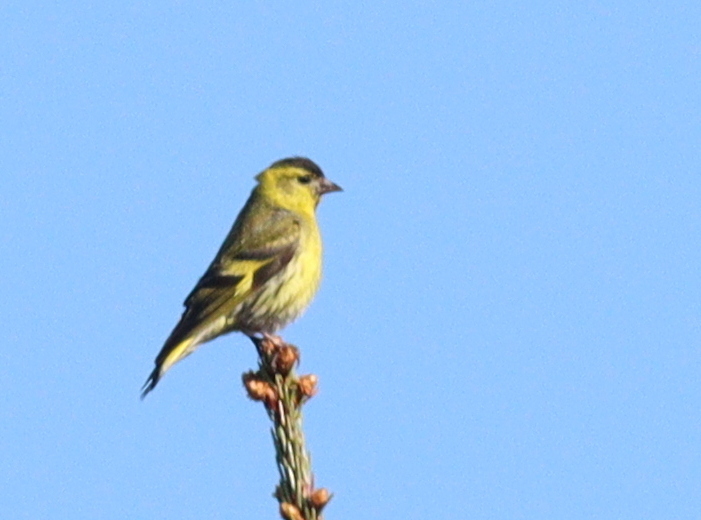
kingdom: Animalia
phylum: Chordata
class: Aves
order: Passeriformes
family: Fringillidae
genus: Spinus
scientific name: Spinus spinus
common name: Eurasian siskin
